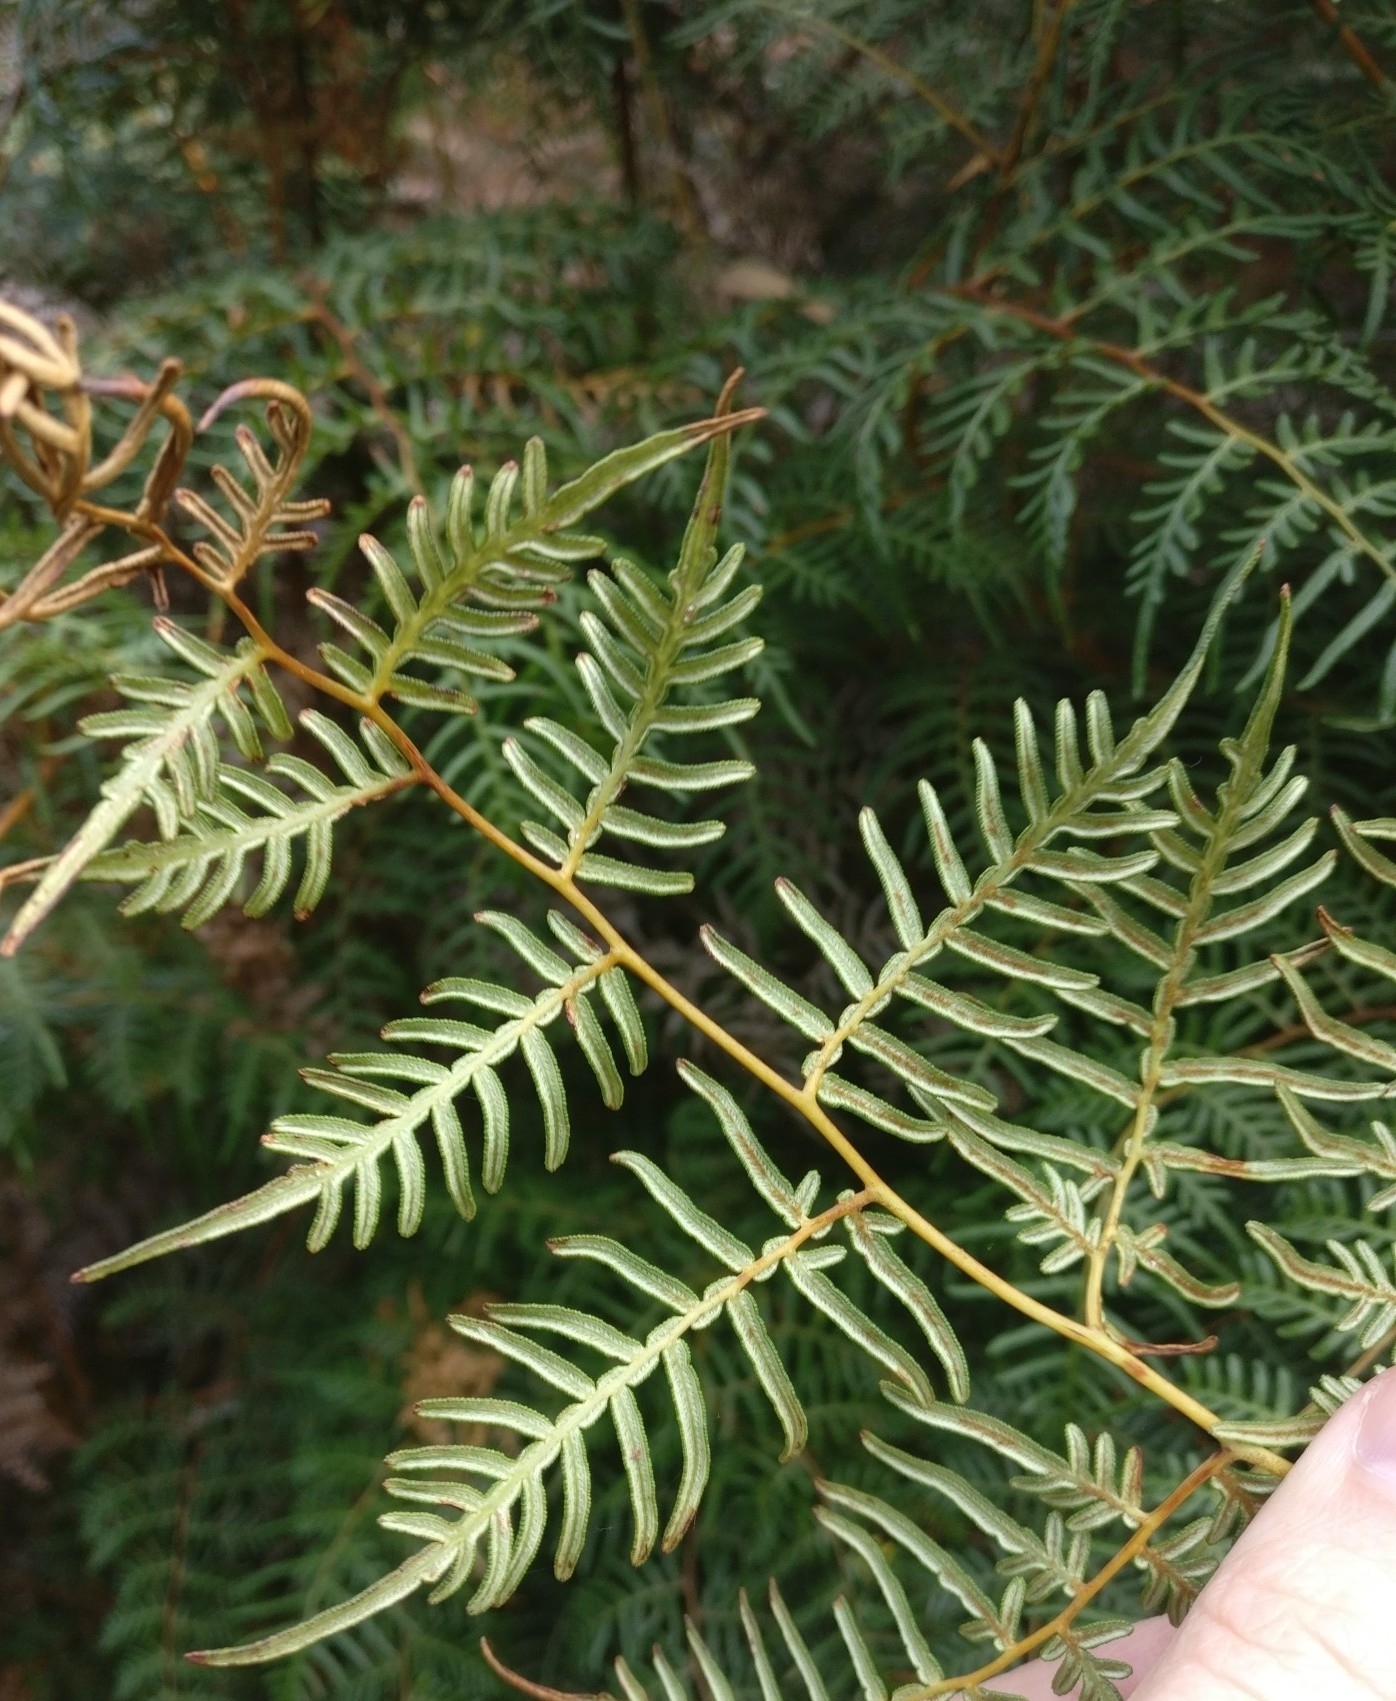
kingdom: Plantae
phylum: Tracheophyta
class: Polypodiopsida
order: Polypodiales
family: Dennstaedtiaceae
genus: Pteridium
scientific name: Pteridium esculentum
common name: Bracken fern
